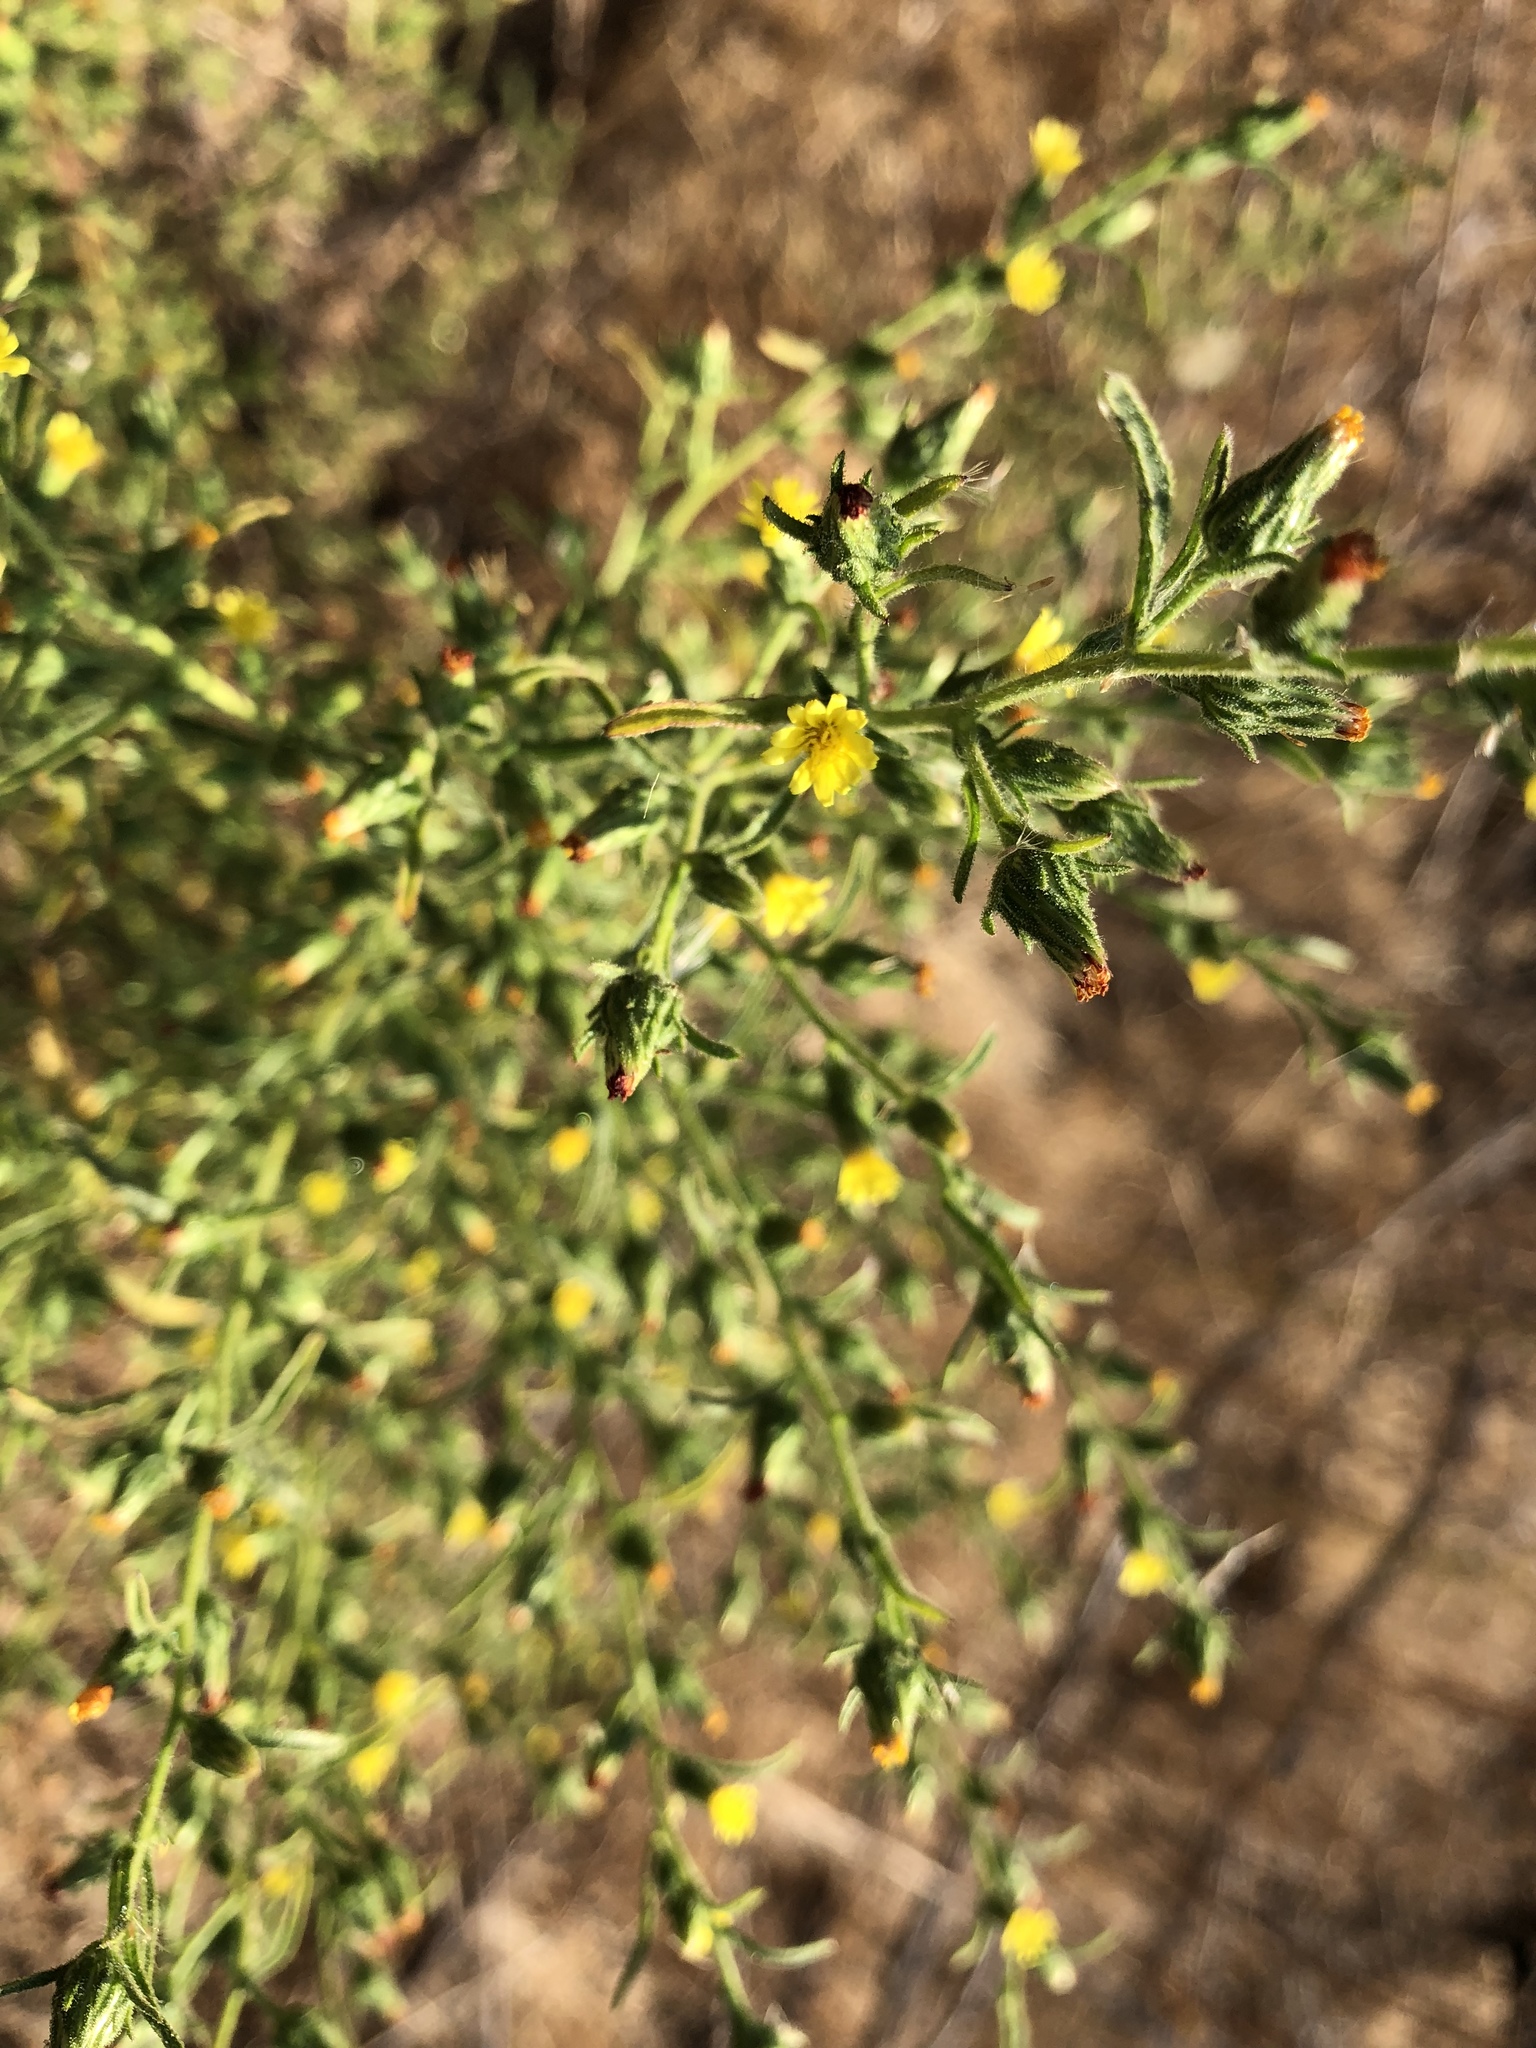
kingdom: Plantae
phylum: Tracheophyta
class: Magnoliopsida
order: Asterales
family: Asteraceae
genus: Dittrichia
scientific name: Dittrichia graveolens
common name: Stinking fleabane
